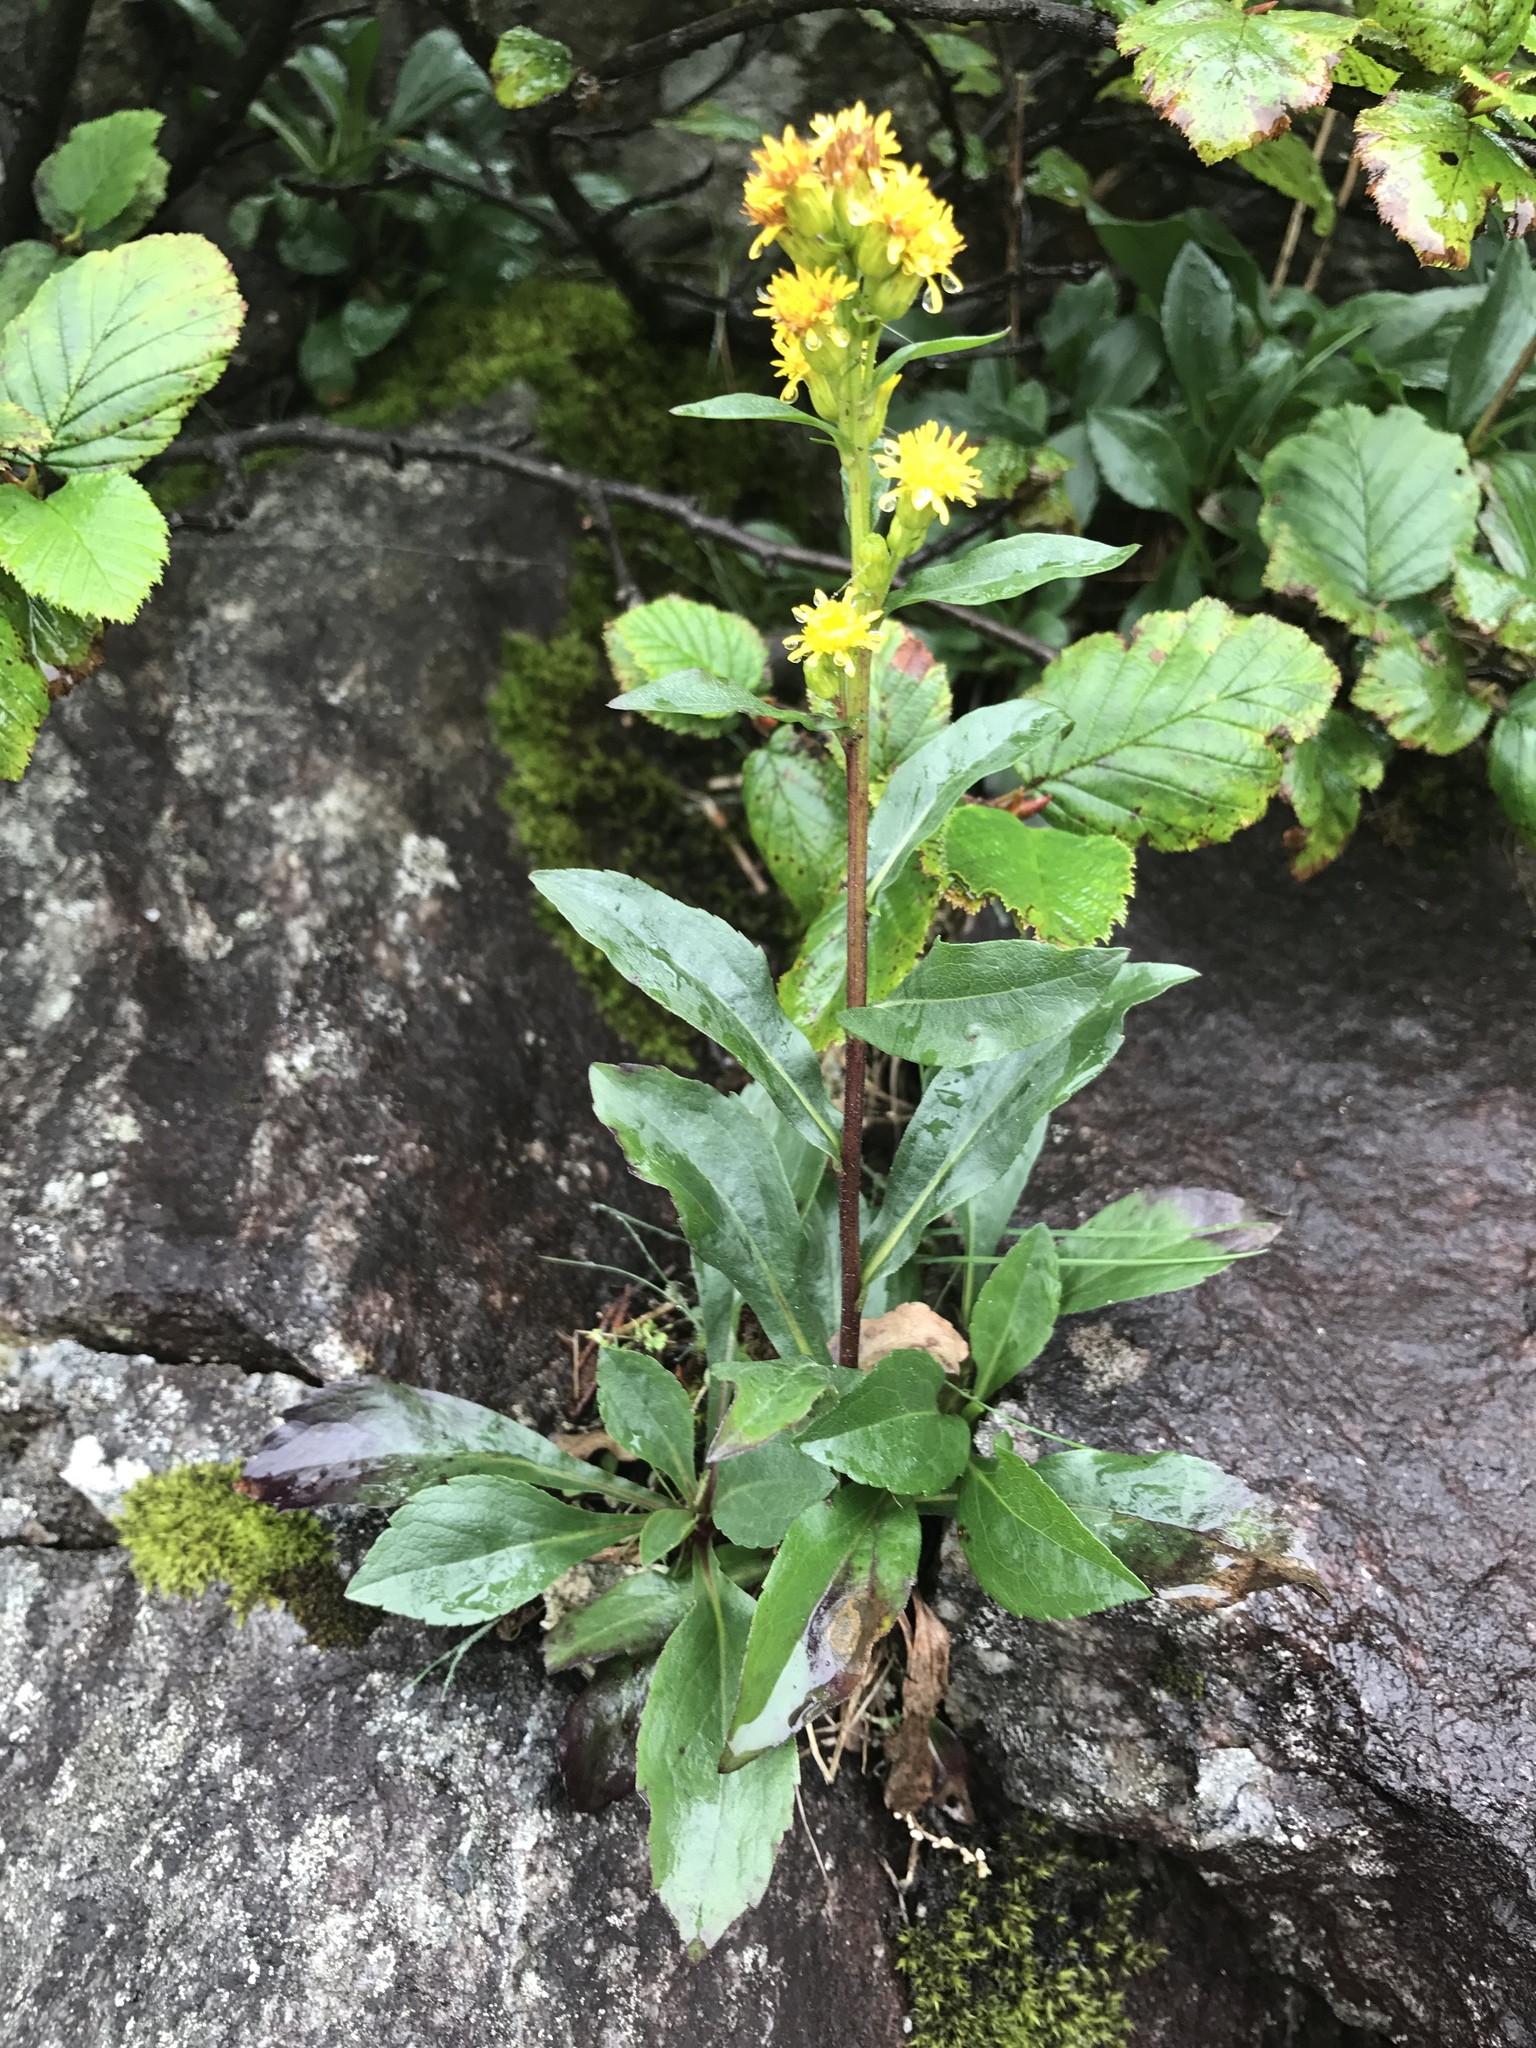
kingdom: Plantae
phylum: Tracheophyta
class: Magnoliopsida
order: Asterales
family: Asteraceae
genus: Solidago
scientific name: Solidago leiocarpa
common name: Cutler's alpine goldenrod
